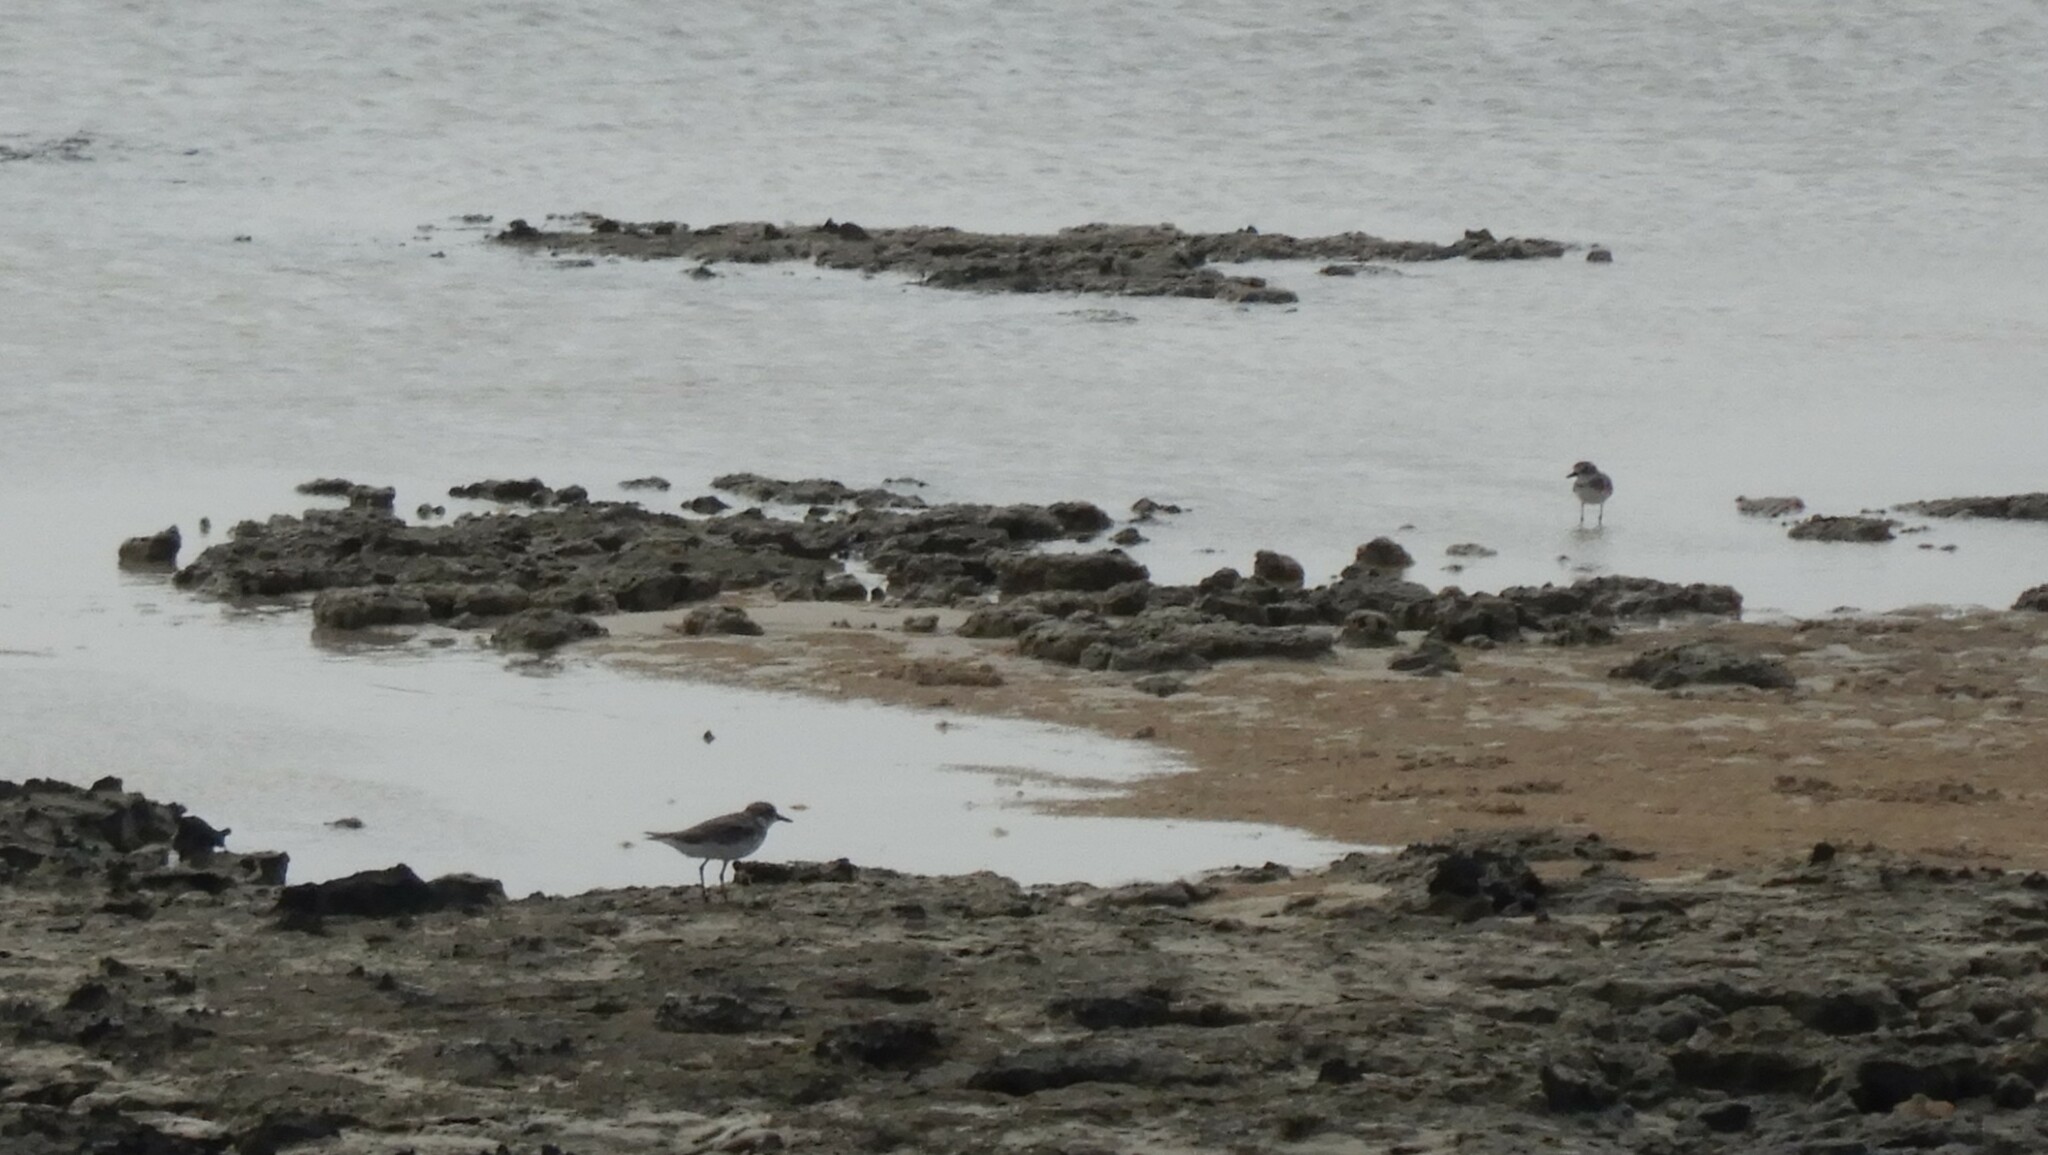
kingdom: Animalia
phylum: Chordata
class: Aves
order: Charadriiformes
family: Charadriidae
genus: Charadrius
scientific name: Charadrius alexandrinus
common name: Kentish plover
